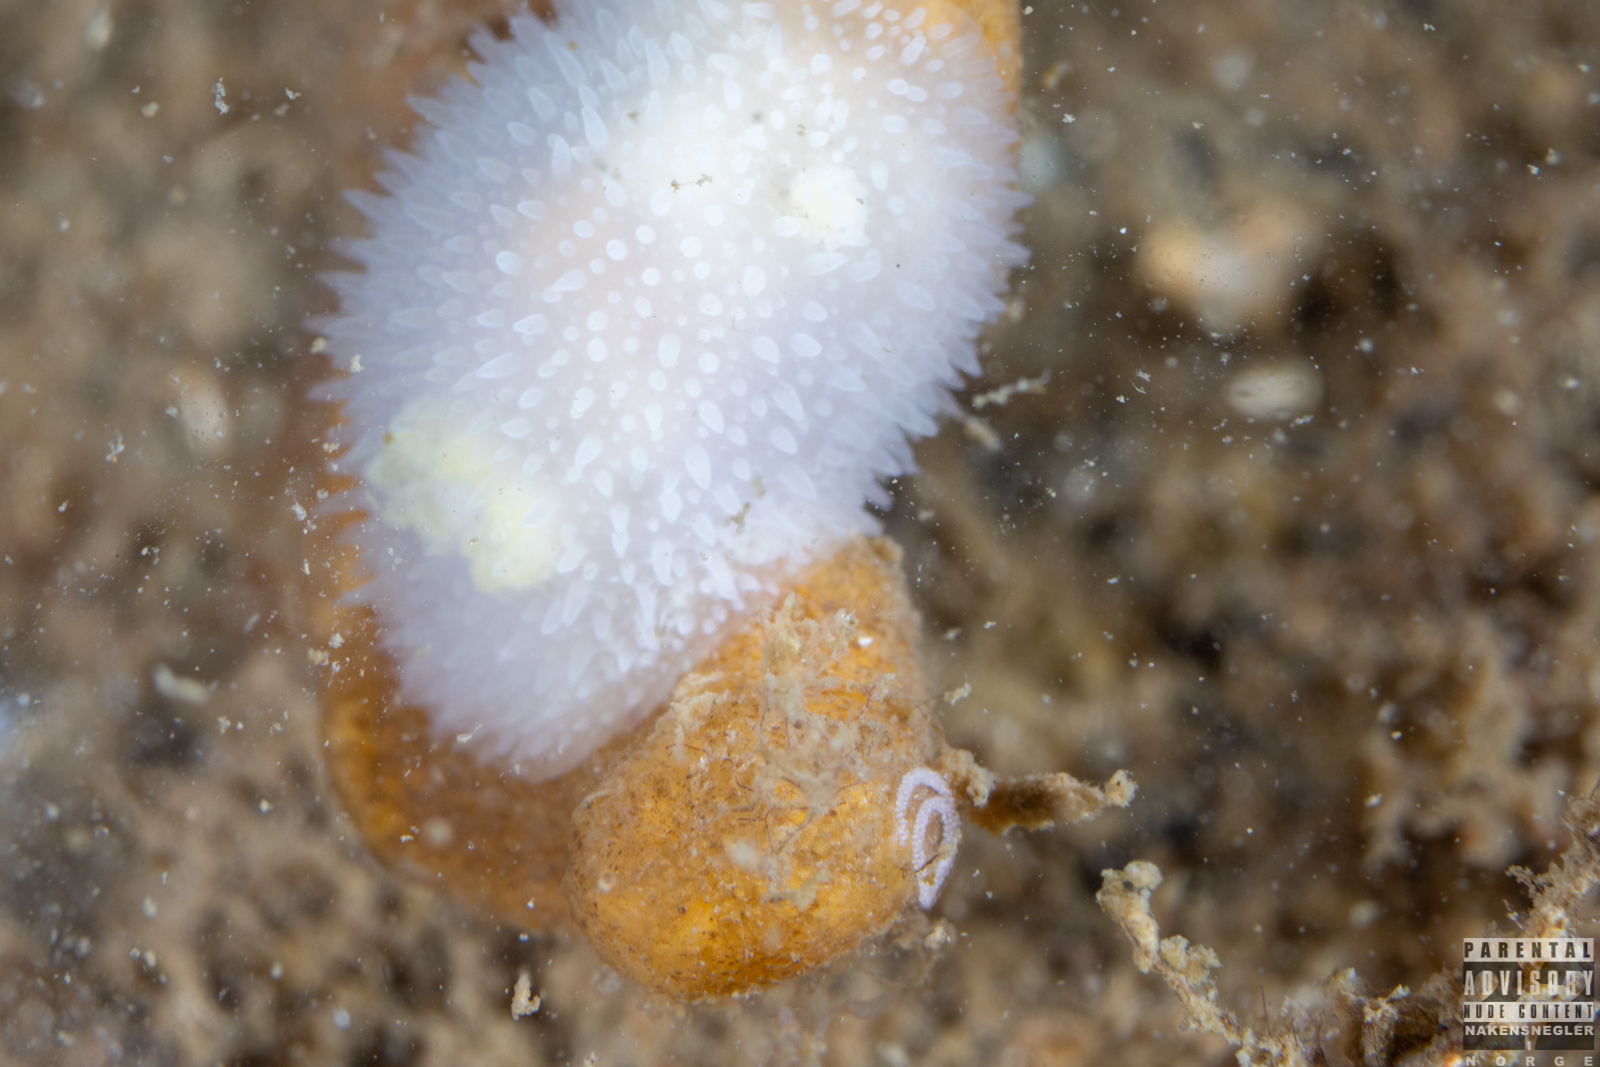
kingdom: Animalia
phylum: Mollusca
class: Gastropoda
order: Nudibranchia
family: Onchidorididae
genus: Acanthodoris
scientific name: Acanthodoris pilosa
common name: Hairy spiny doris
